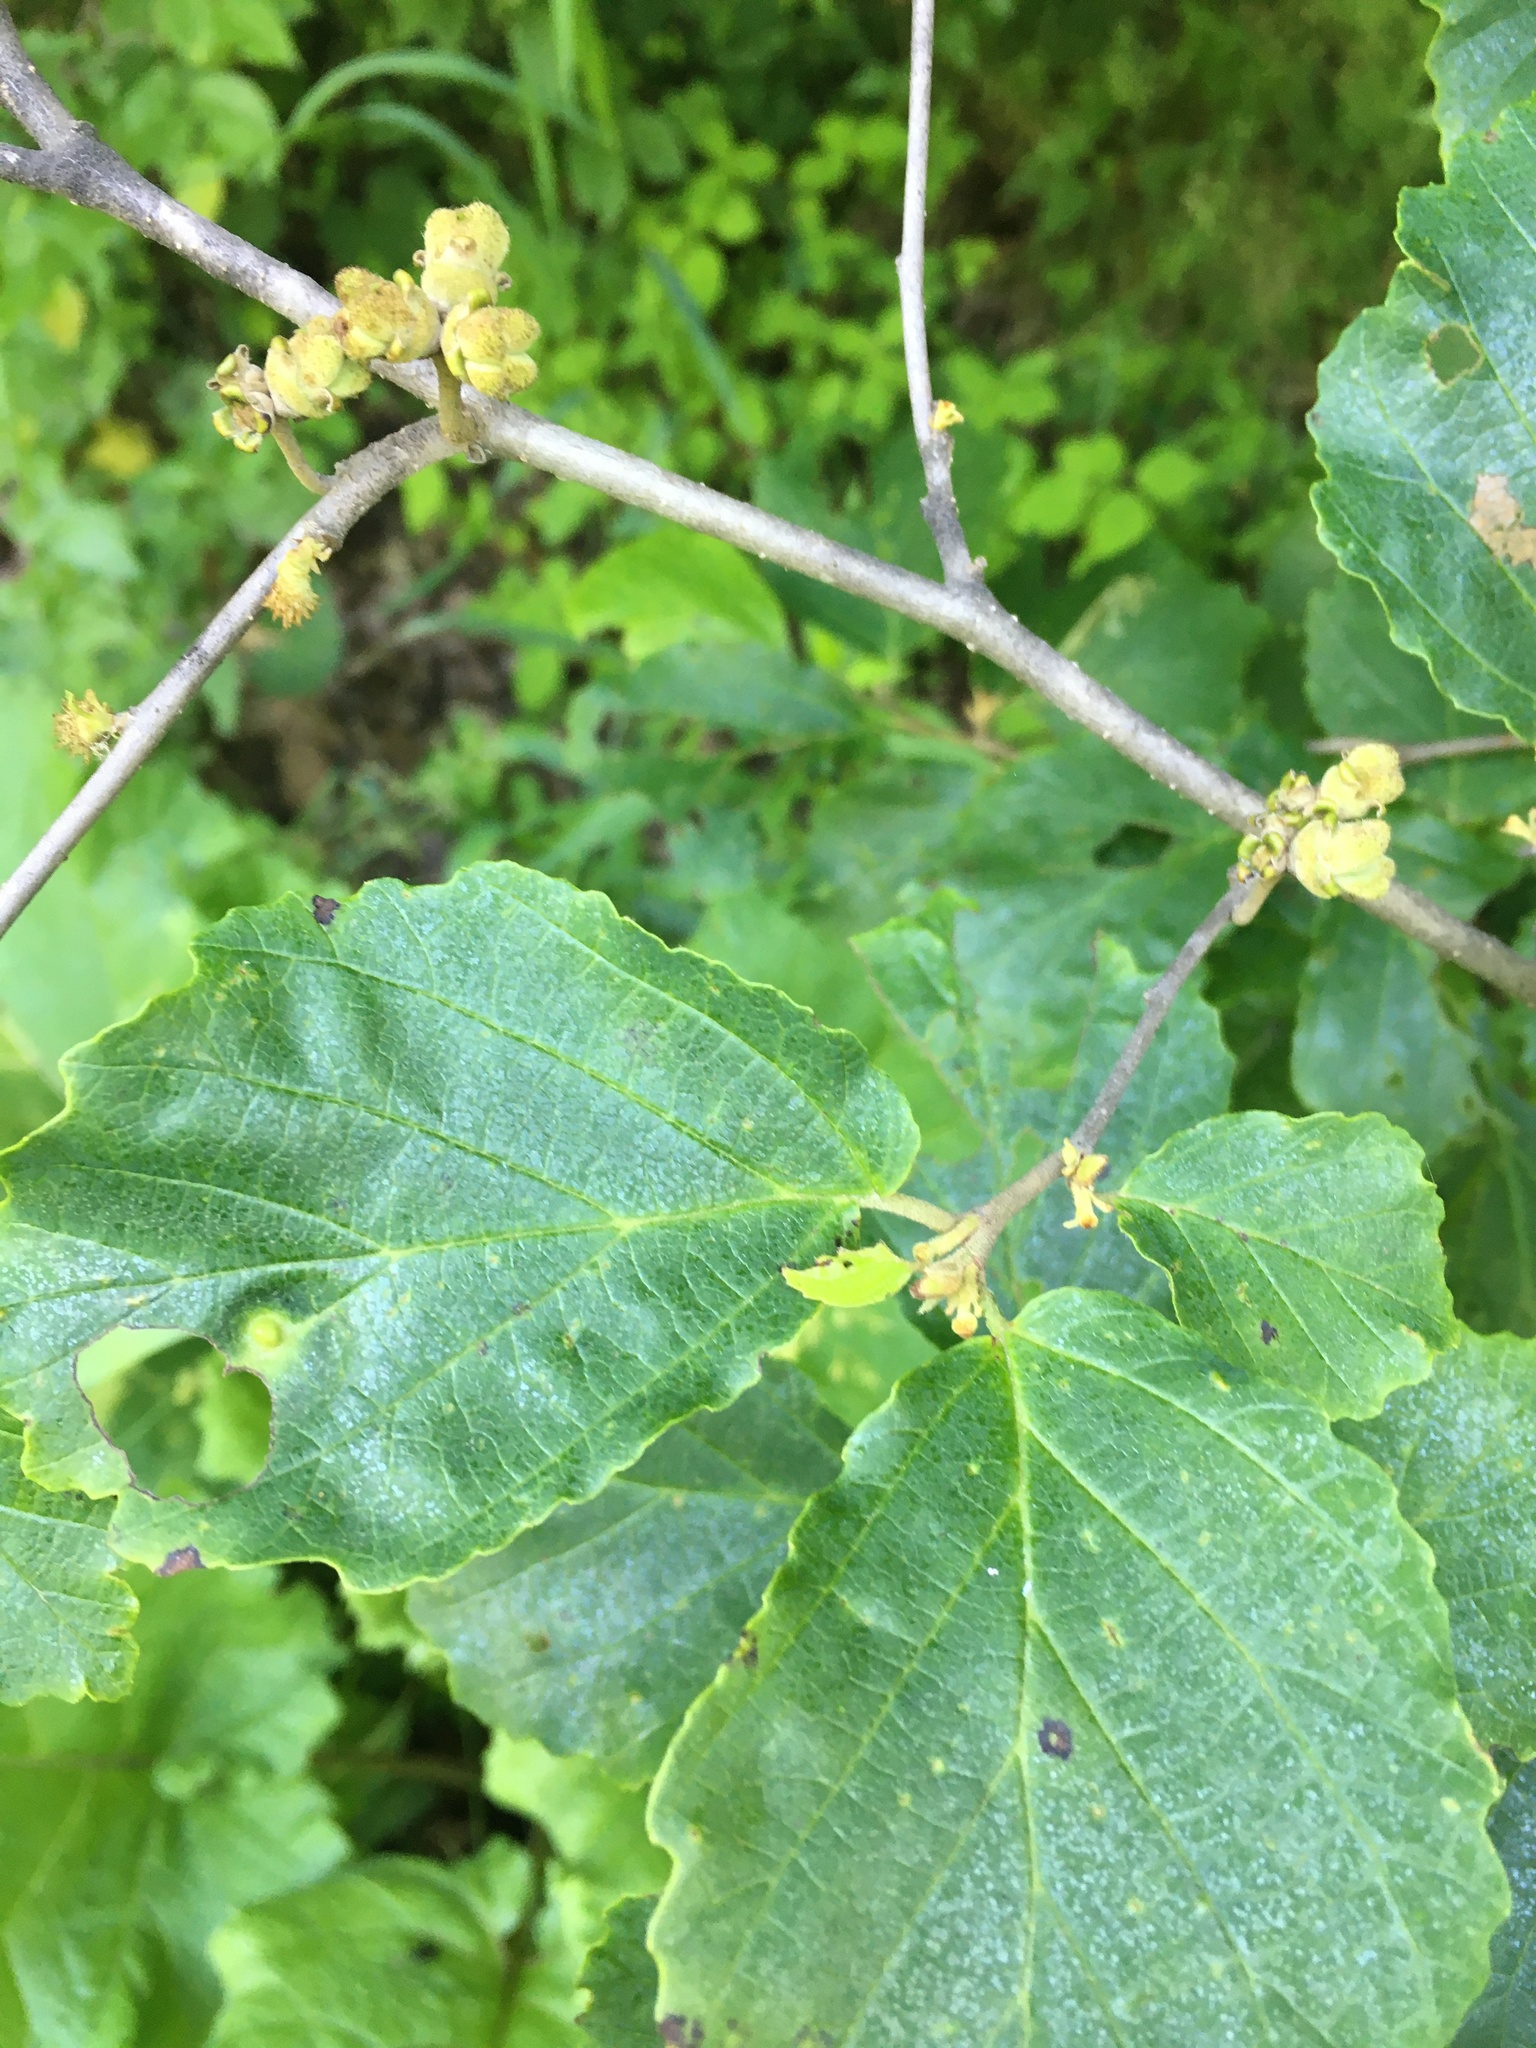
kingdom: Plantae
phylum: Tracheophyta
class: Magnoliopsida
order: Saxifragales
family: Hamamelidaceae
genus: Hamamelis
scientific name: Hamamelis virginiana
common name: Witch-hazel
